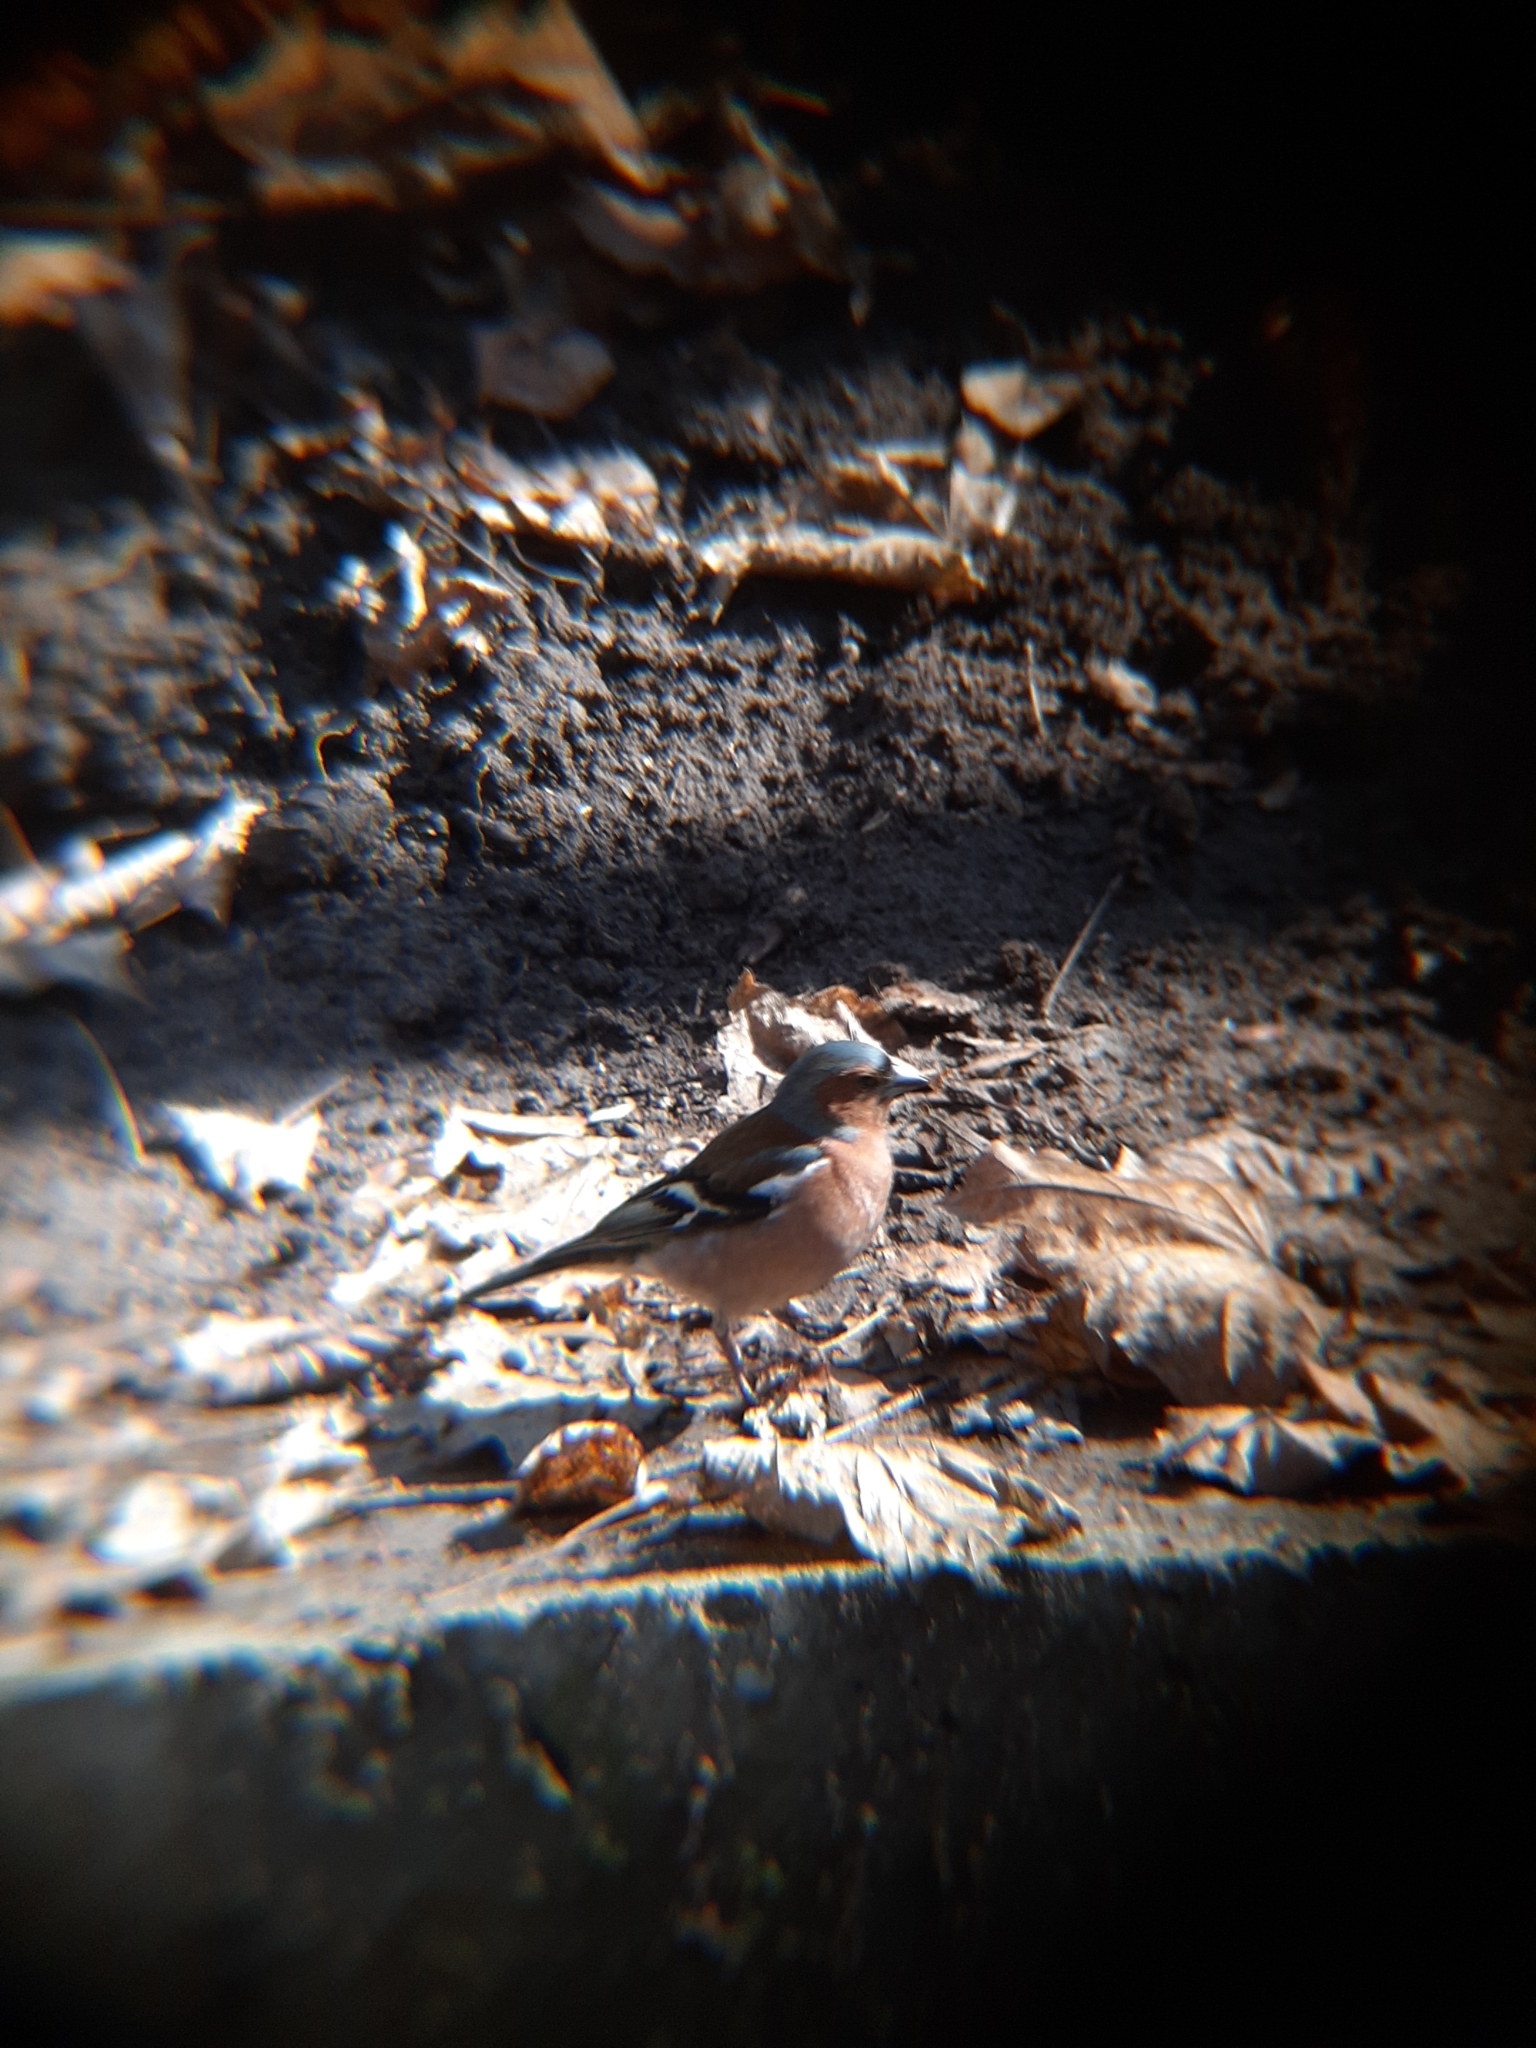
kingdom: Animalia
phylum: Chordata
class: Aves
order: Passeriformes
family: Fringillidae
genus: Fringilla
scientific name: Fringilla coelebs
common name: Common chaffinch
